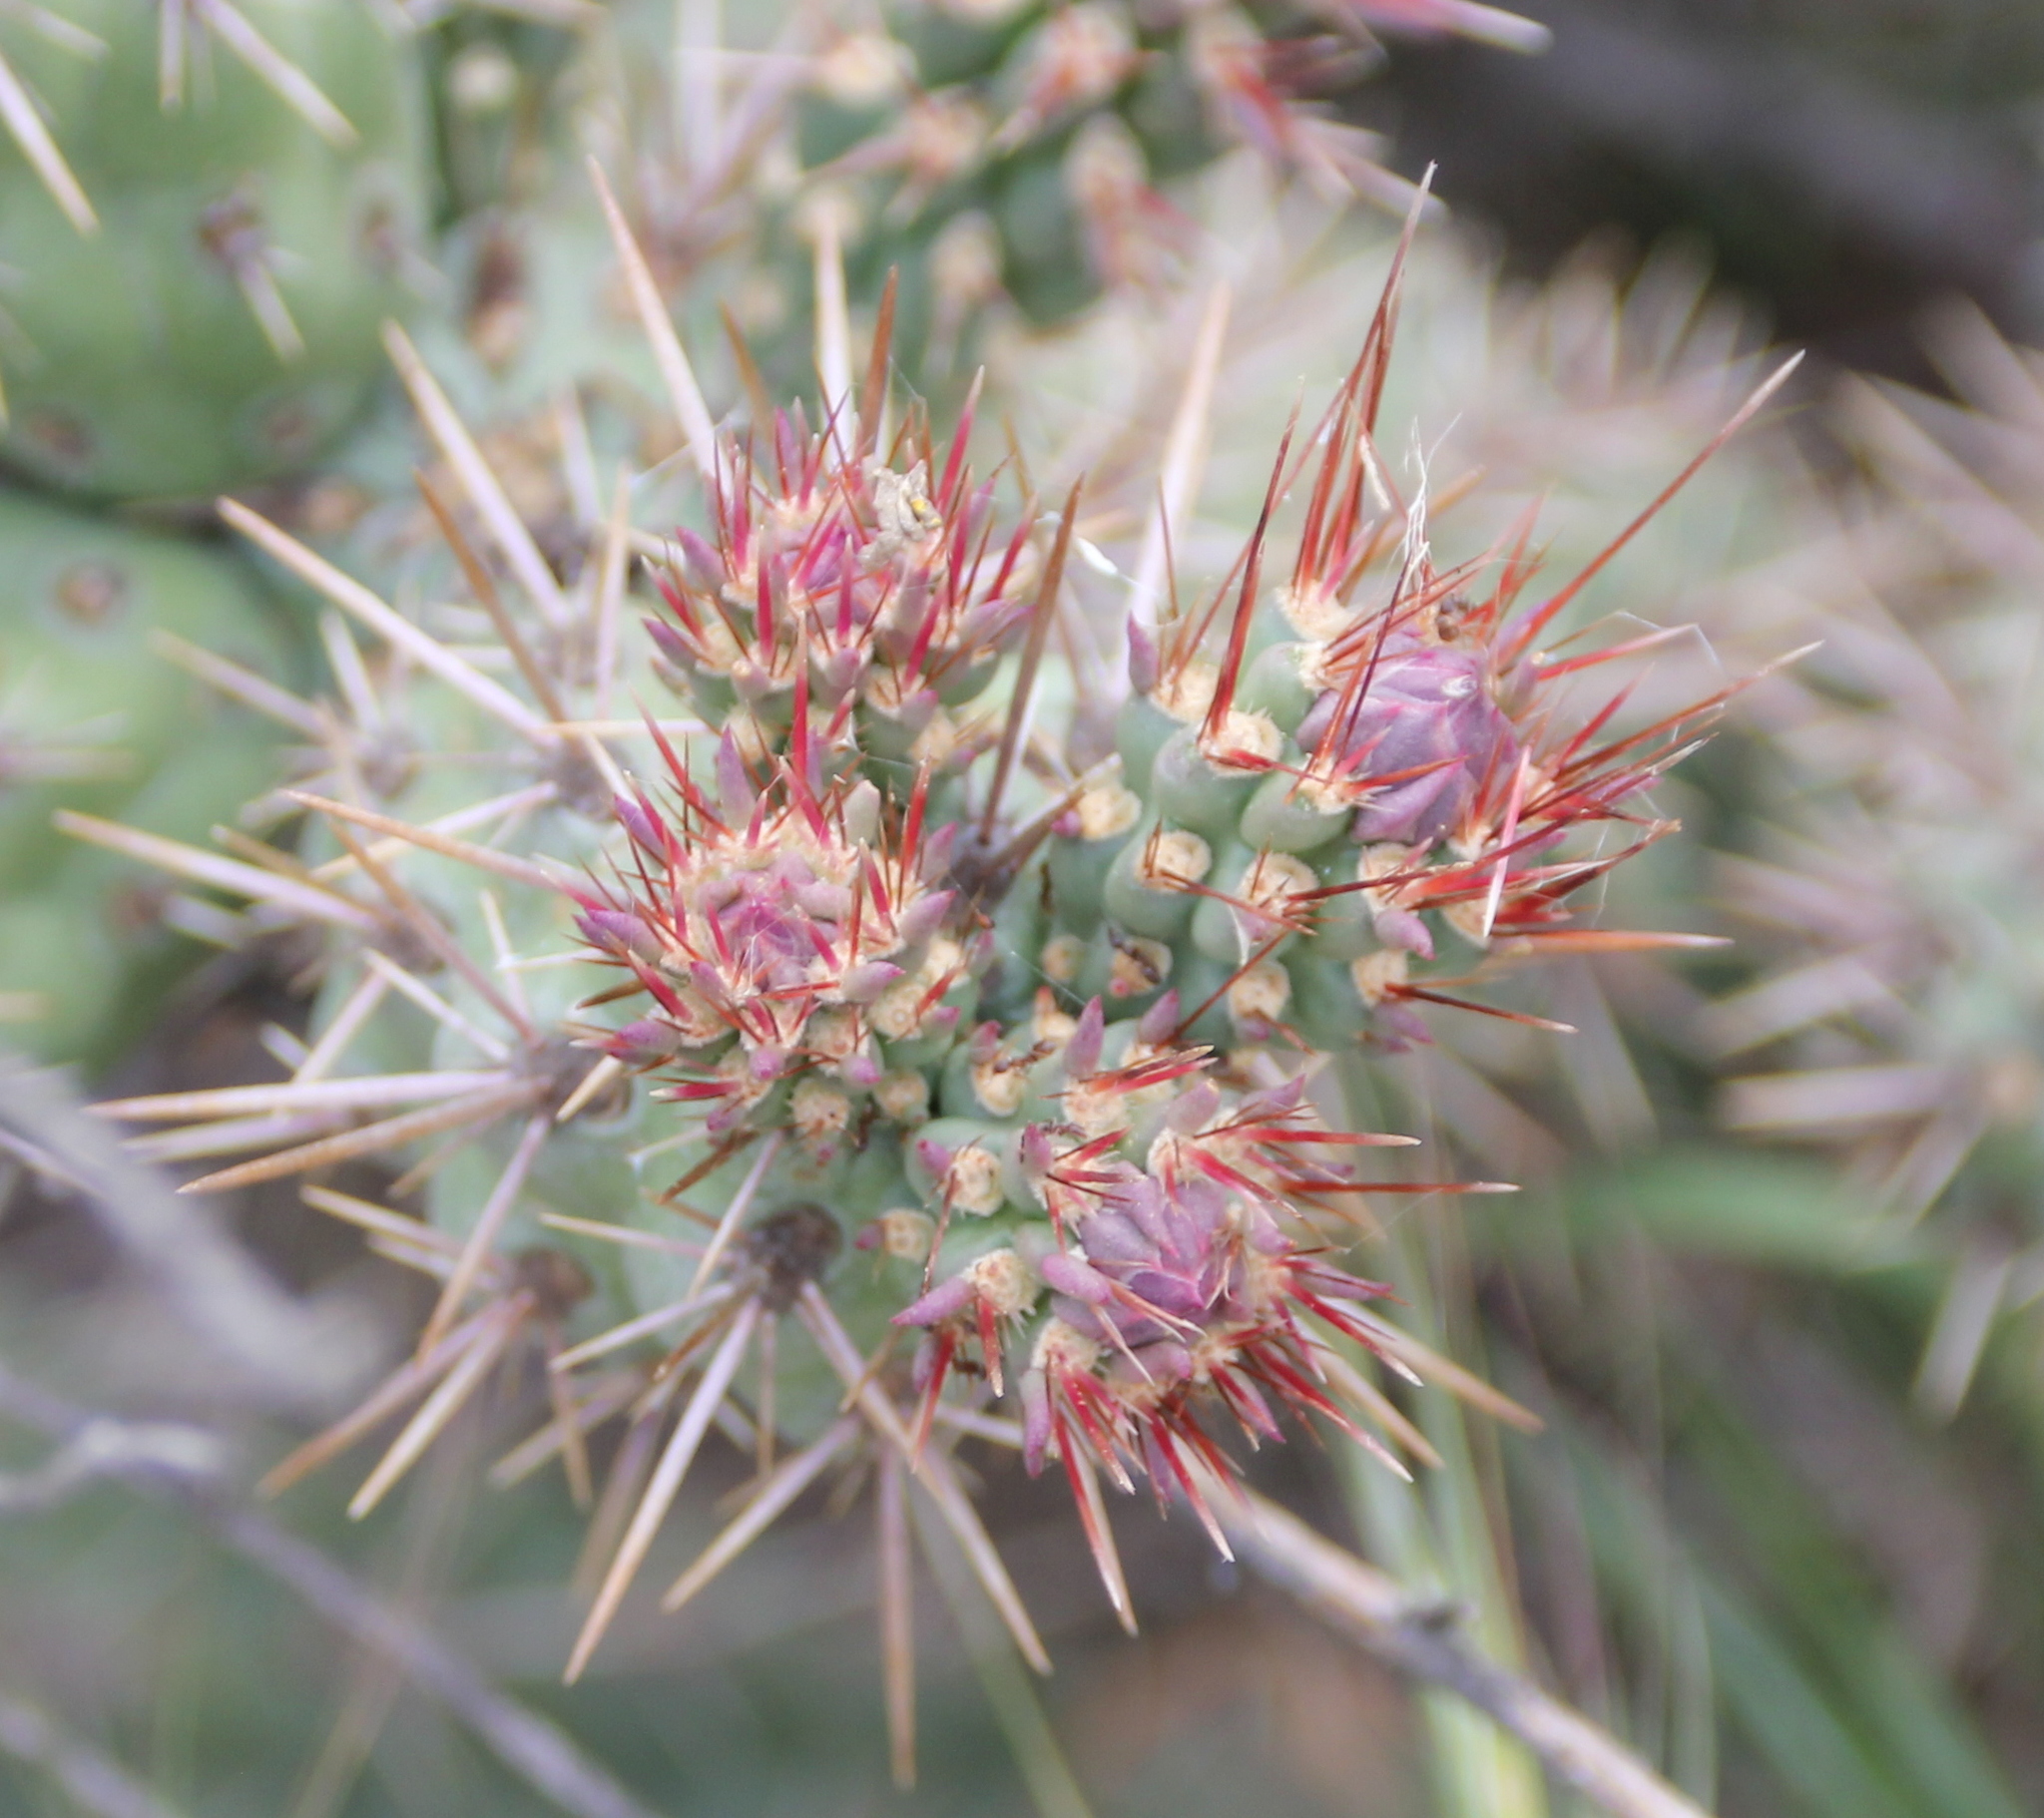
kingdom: Plantae
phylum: Tracheophyta
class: Magnoliopsida
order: Caryophyllales
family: Cactaceae
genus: Cylindropuntia
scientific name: Cylindropuntia prolifera
